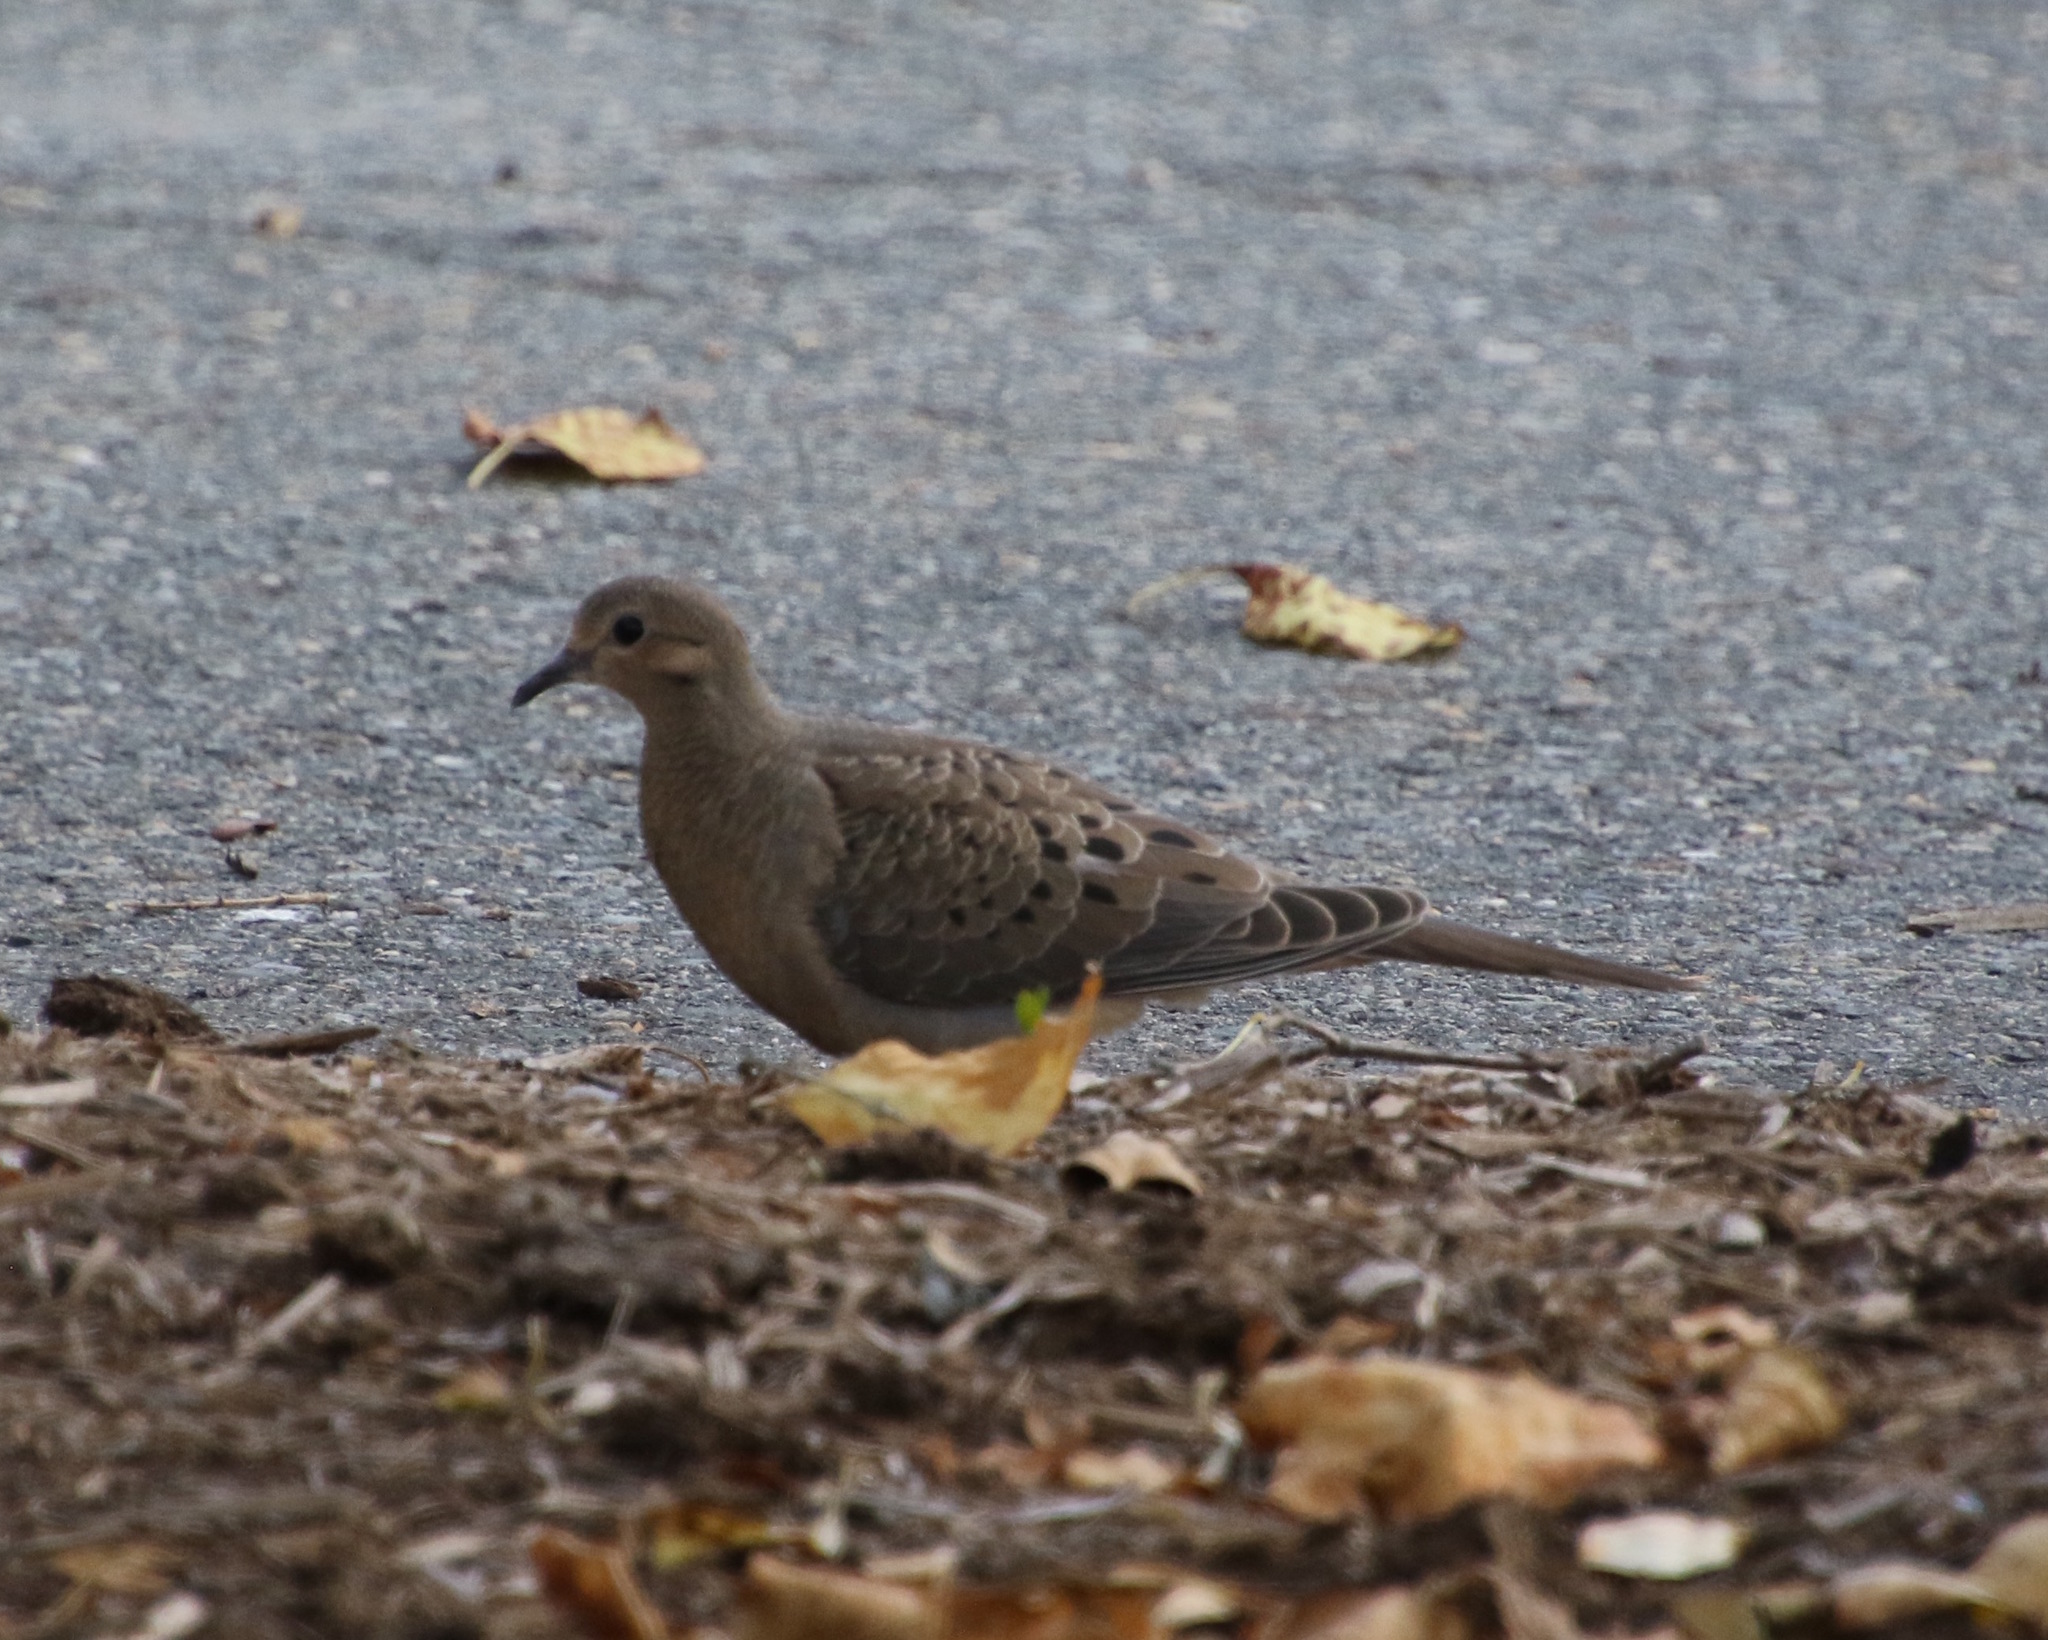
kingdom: Animalia
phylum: Chordata
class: Aves
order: Columbiformes
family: Columbidae
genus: Zenaida
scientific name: Zenaida macroura
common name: Mourning dove
